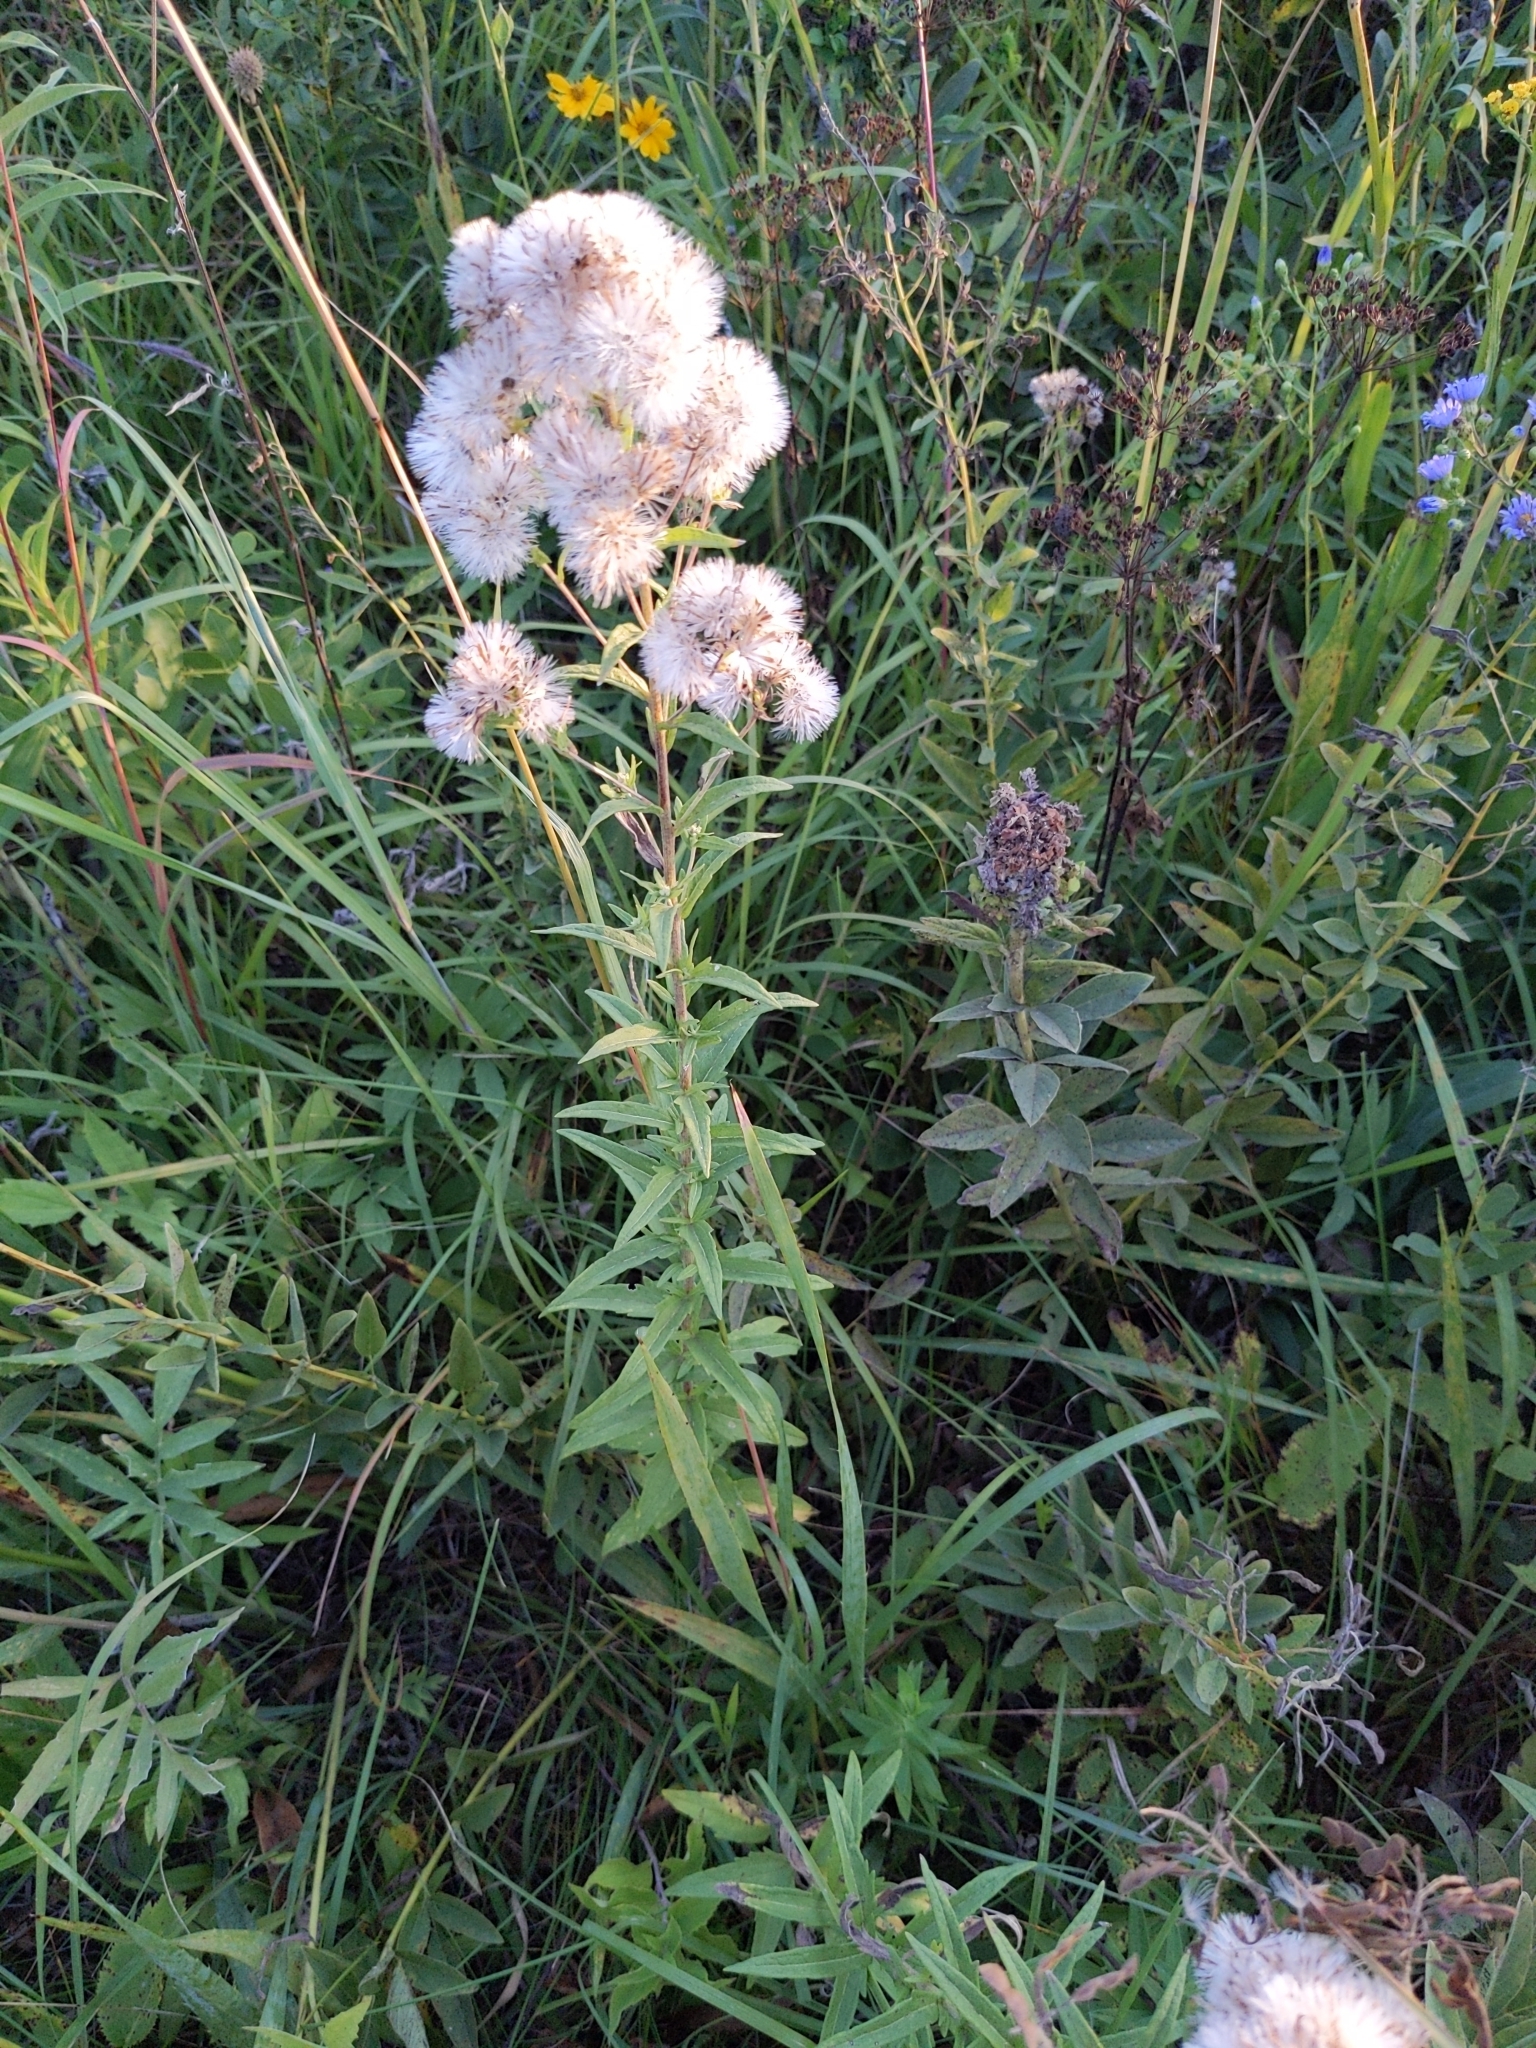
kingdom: Plantae
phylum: Tracheophyta
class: Magnoliopsida
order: Asterales
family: Asteraceae
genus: Brickellia
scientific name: Brickellia eupatorioides
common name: False boneset
